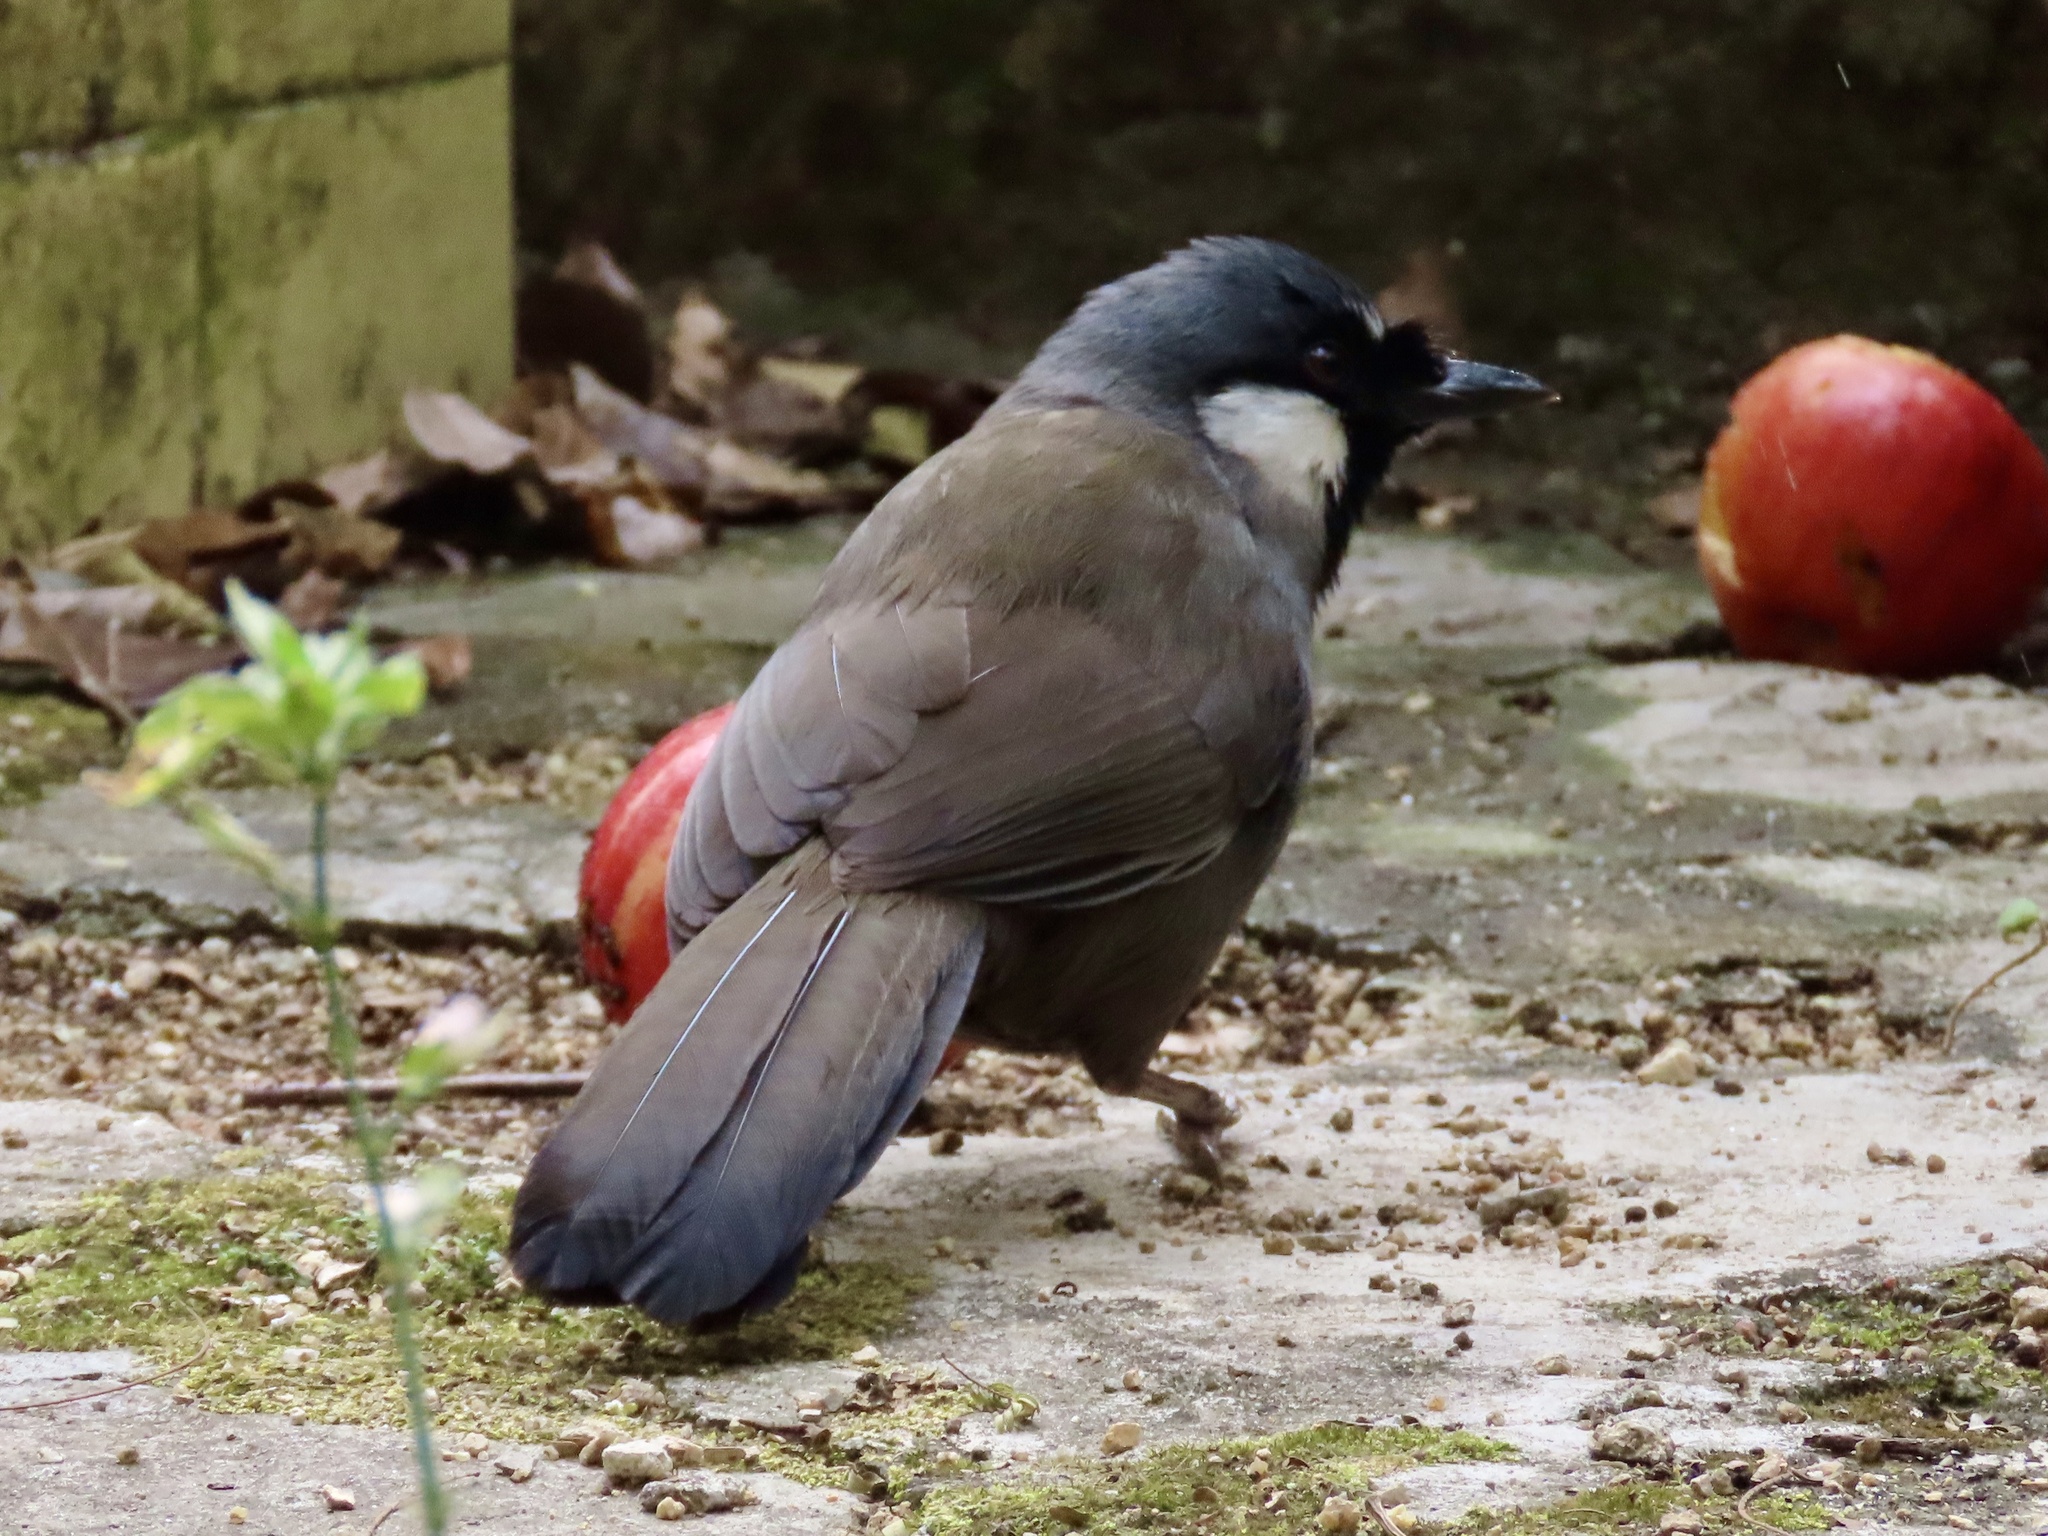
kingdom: Animalia
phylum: Chordata
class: Aves
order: Passeriformes
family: Leiothrichidae
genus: Garrulax
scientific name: Garrulax chinensis
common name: Black-throated laughingthrush
